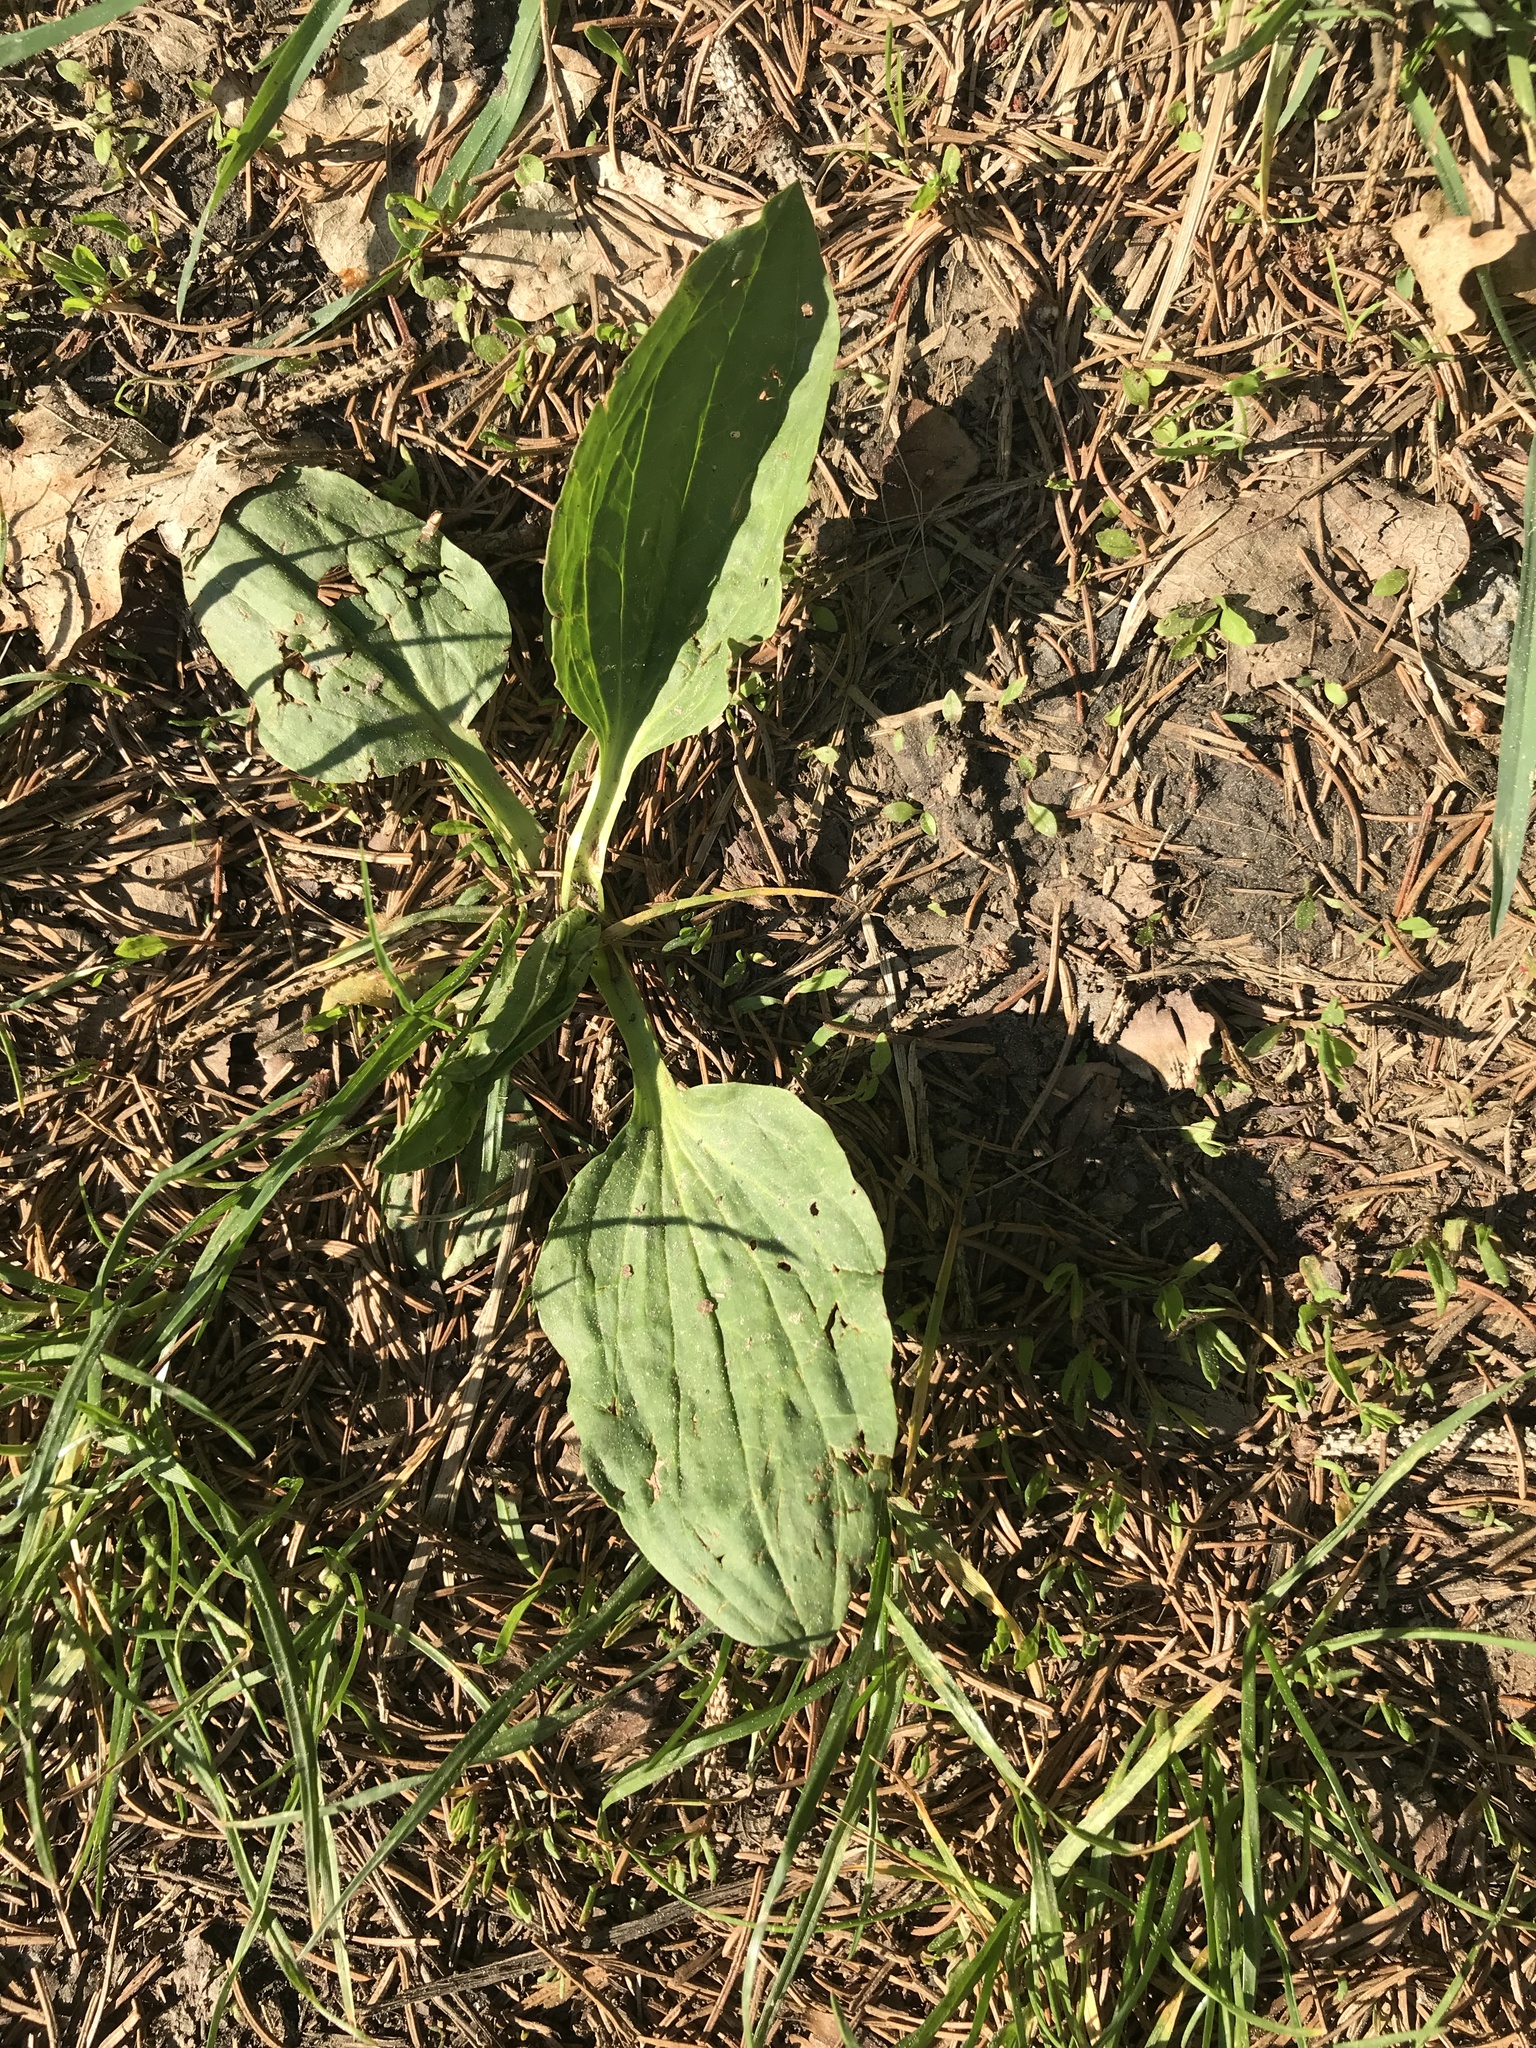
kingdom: Plantae
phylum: Tracheophyta
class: Magnoliopsida
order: Lamiales
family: Plantaginaceae
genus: Plantago
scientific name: Plantago major
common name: Common plantain
